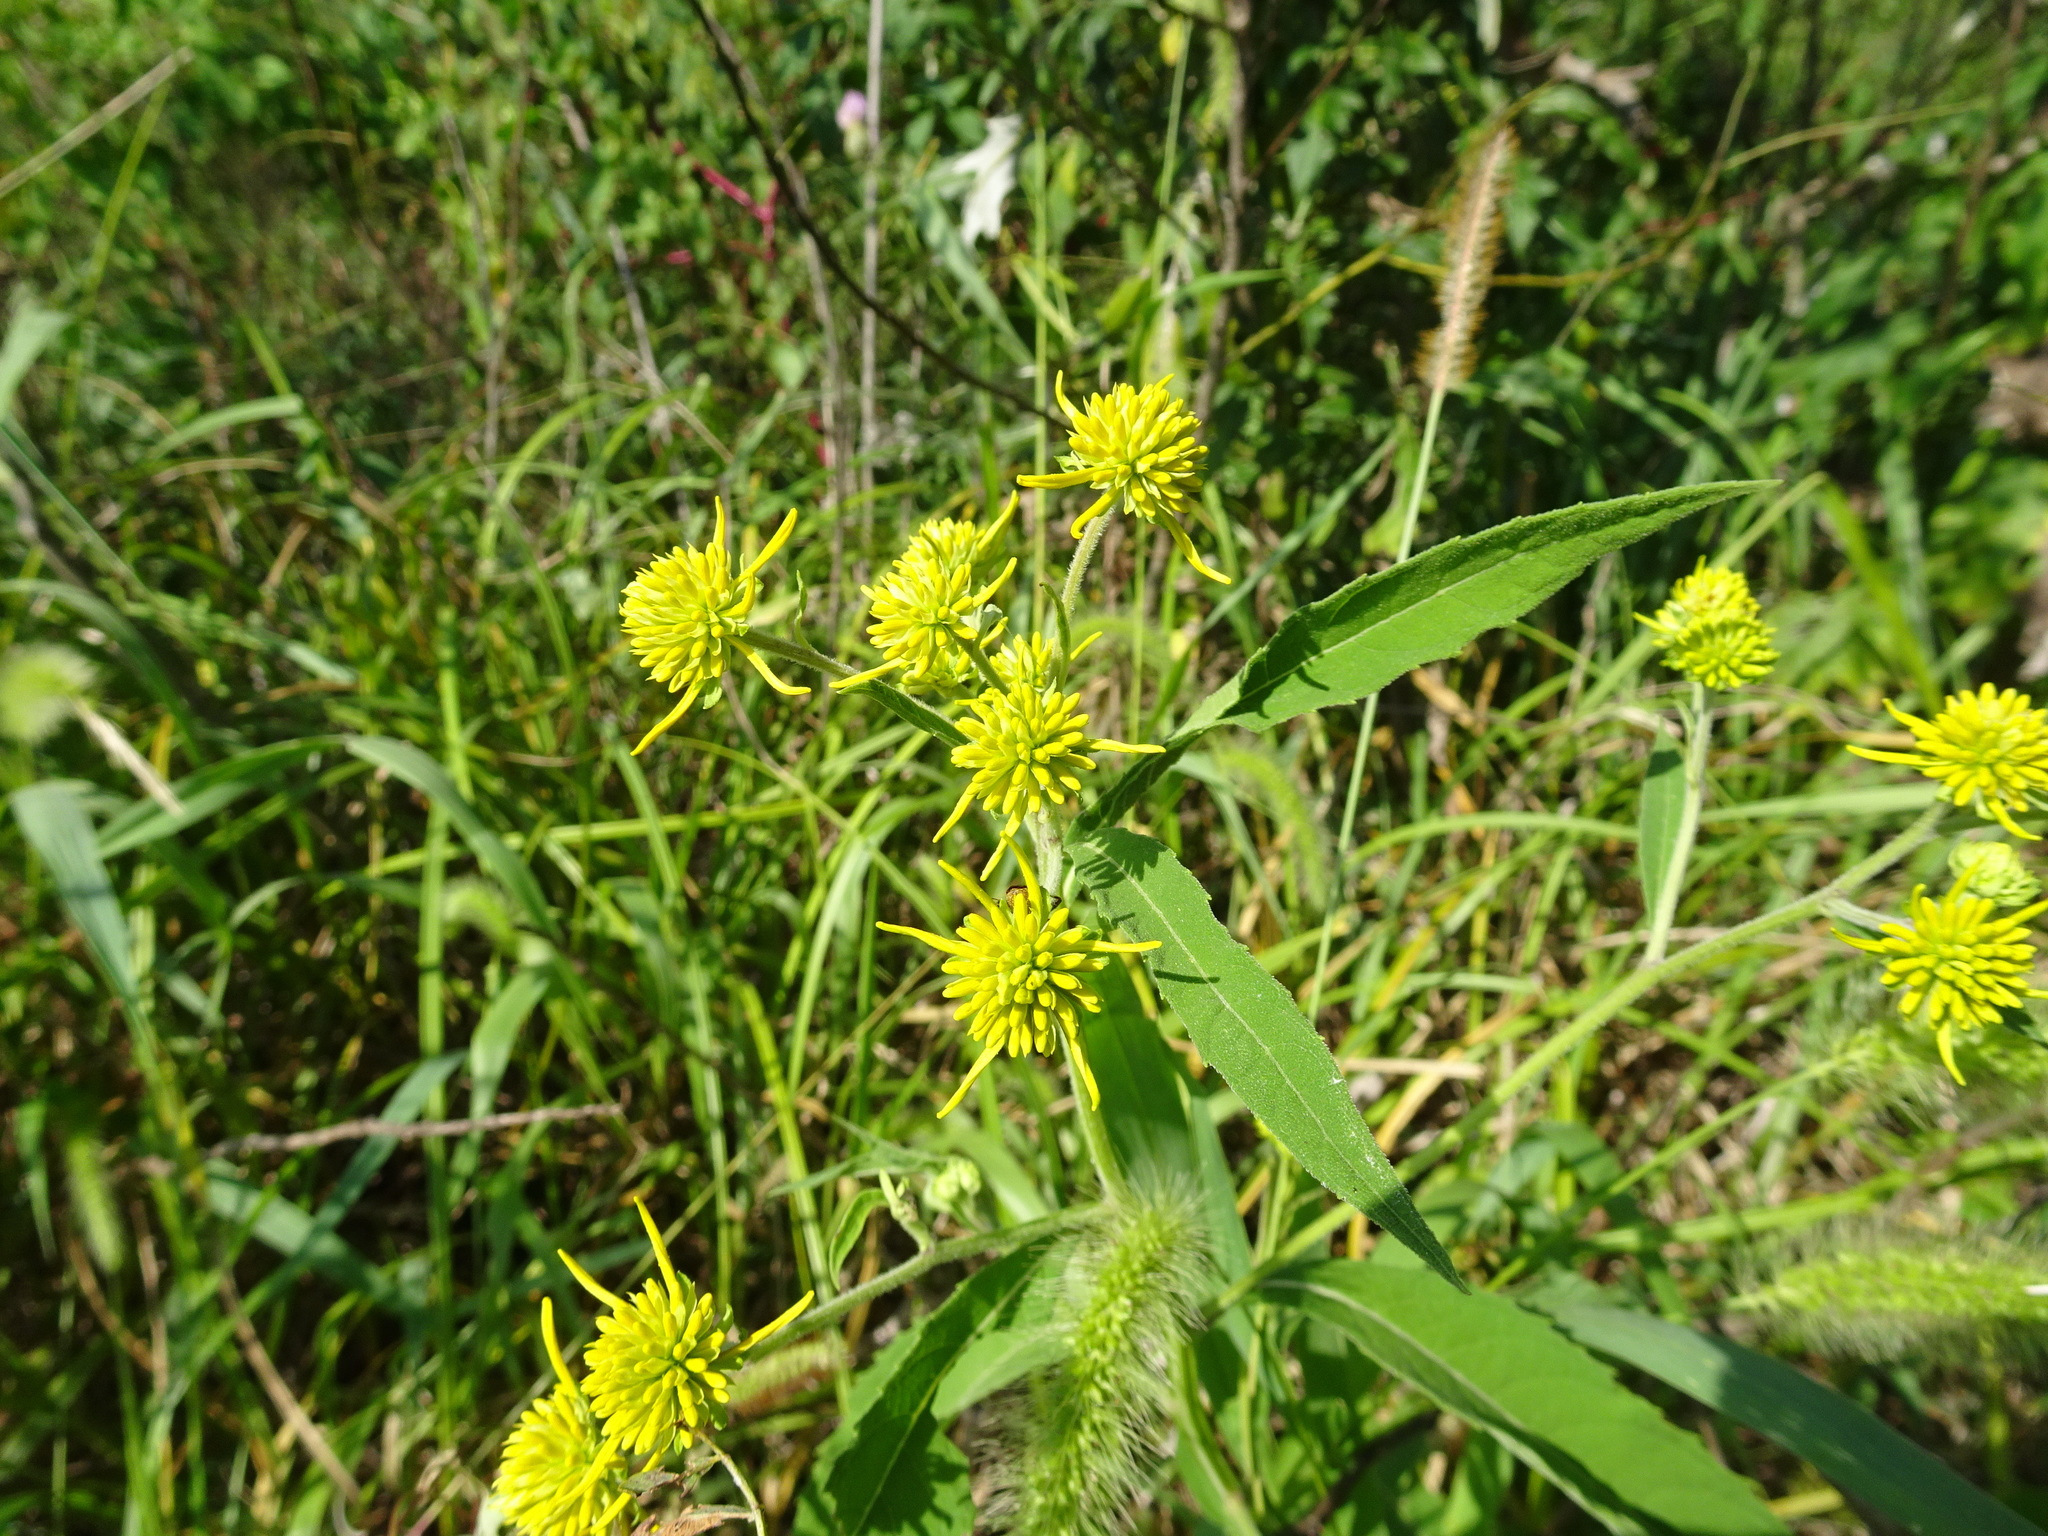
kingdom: Plantae
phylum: Tracheophyta
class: Magnoliopsida
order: Asterales
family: Asteraceae
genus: Verbesina
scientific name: Verbesina alternifolia
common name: Wingstem
